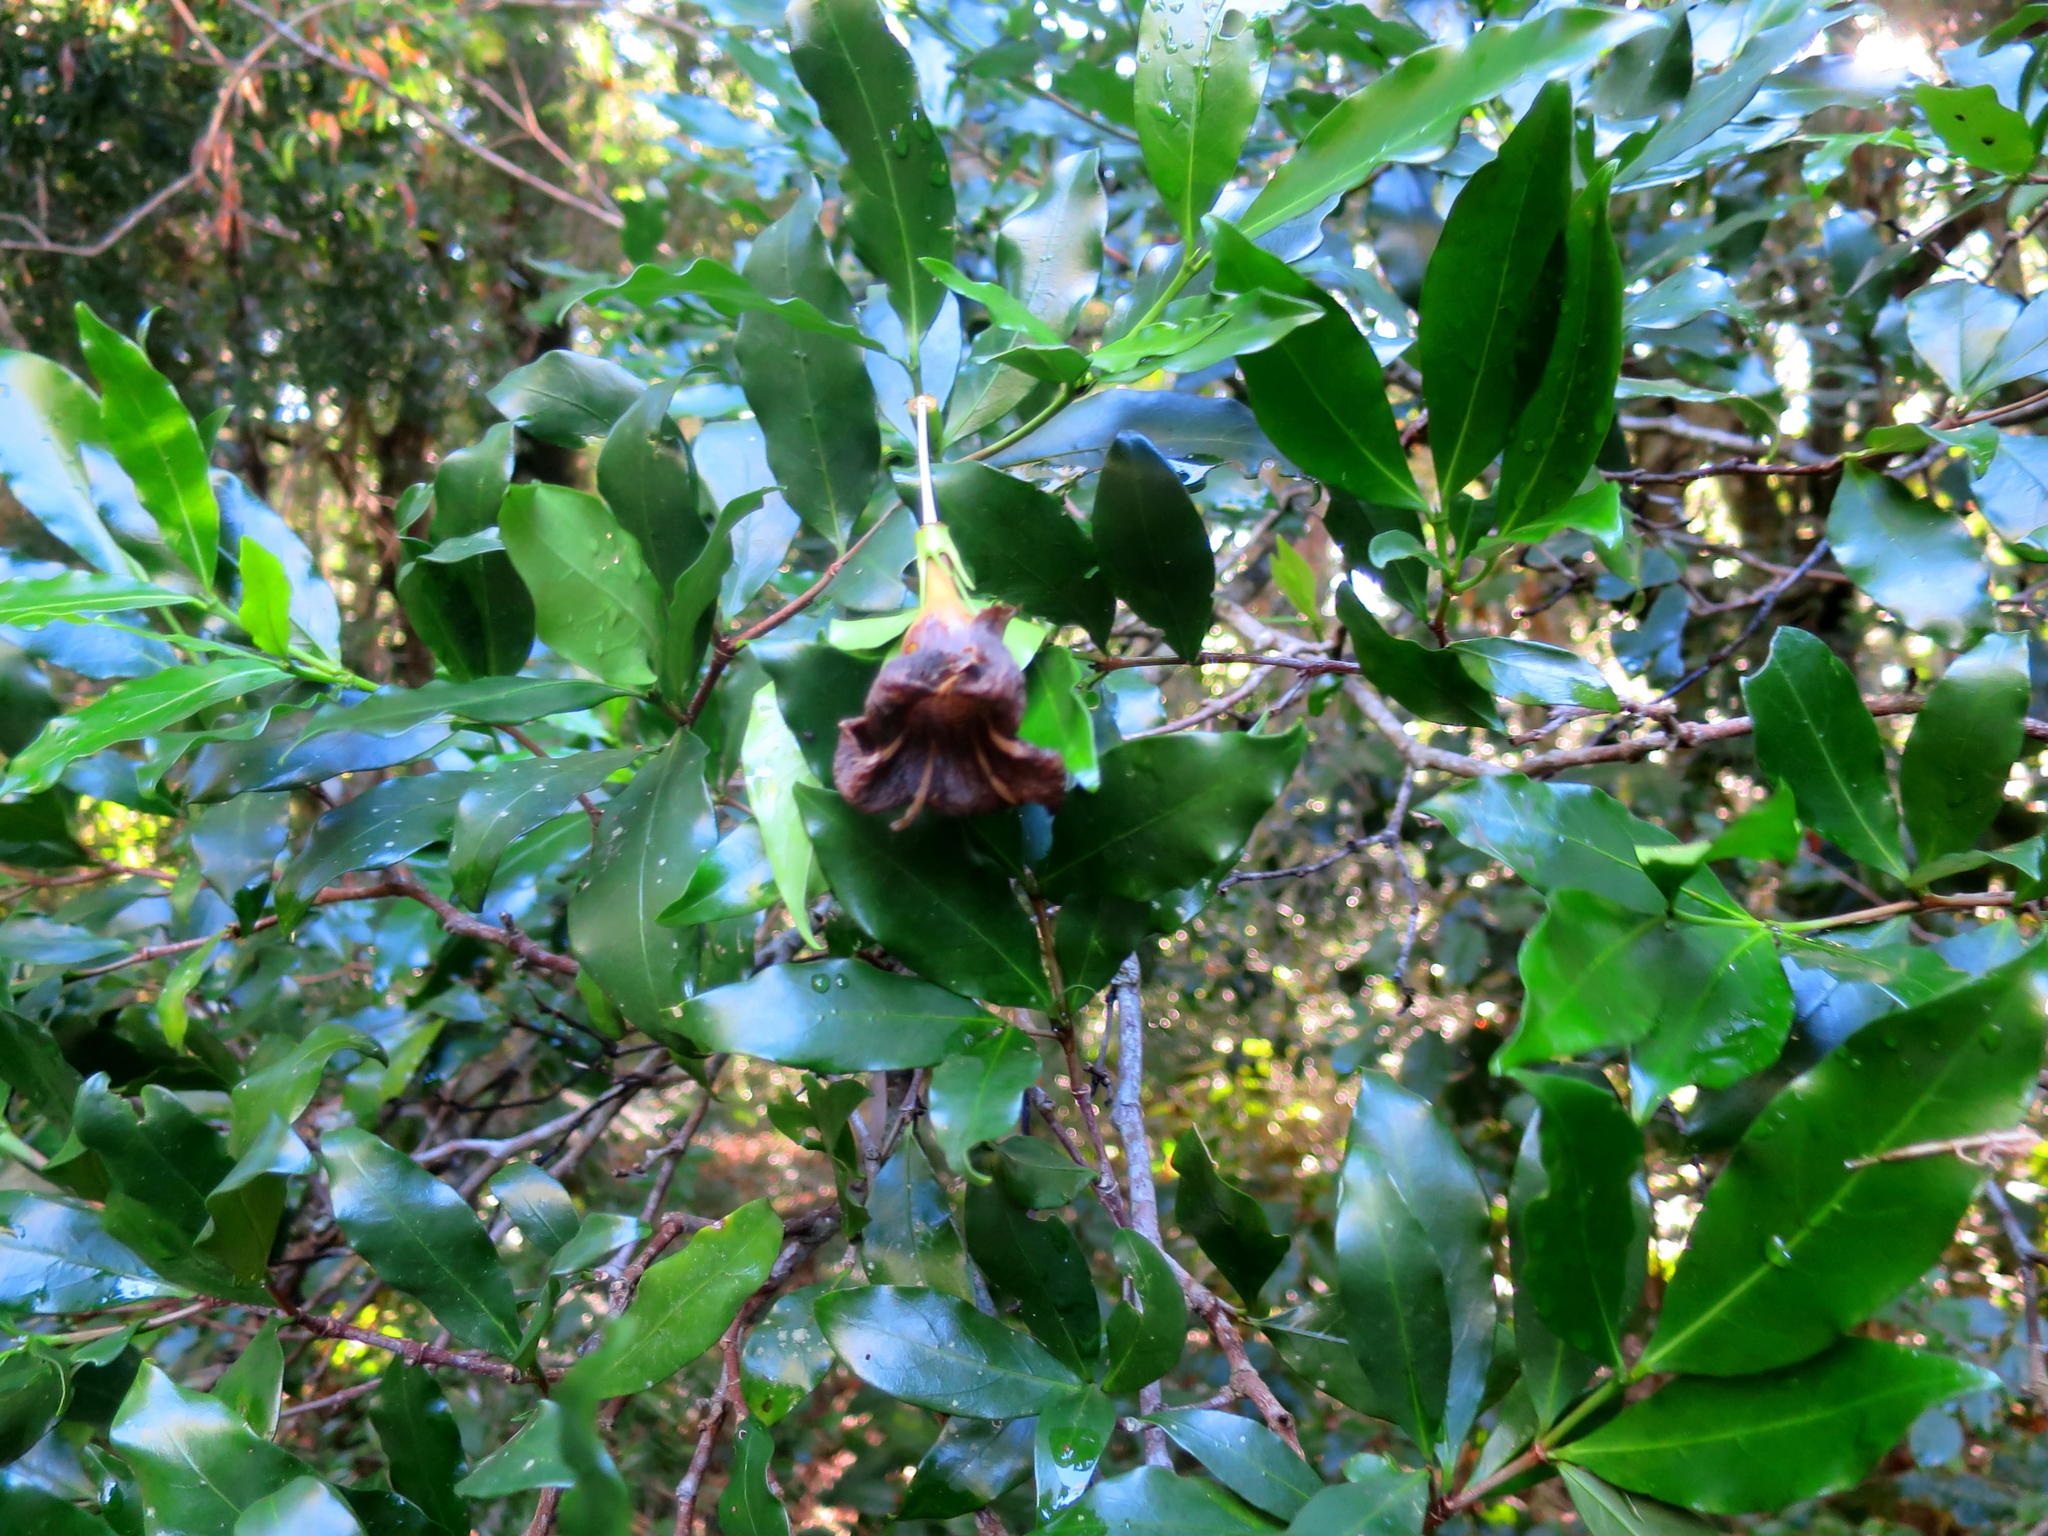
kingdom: Plantae
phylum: Tracheophyta
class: Magnoliopsida
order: Gentianales
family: Rubiaceae
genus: Rothmannia
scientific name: Rothmannia capensis
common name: Cape gardenia
